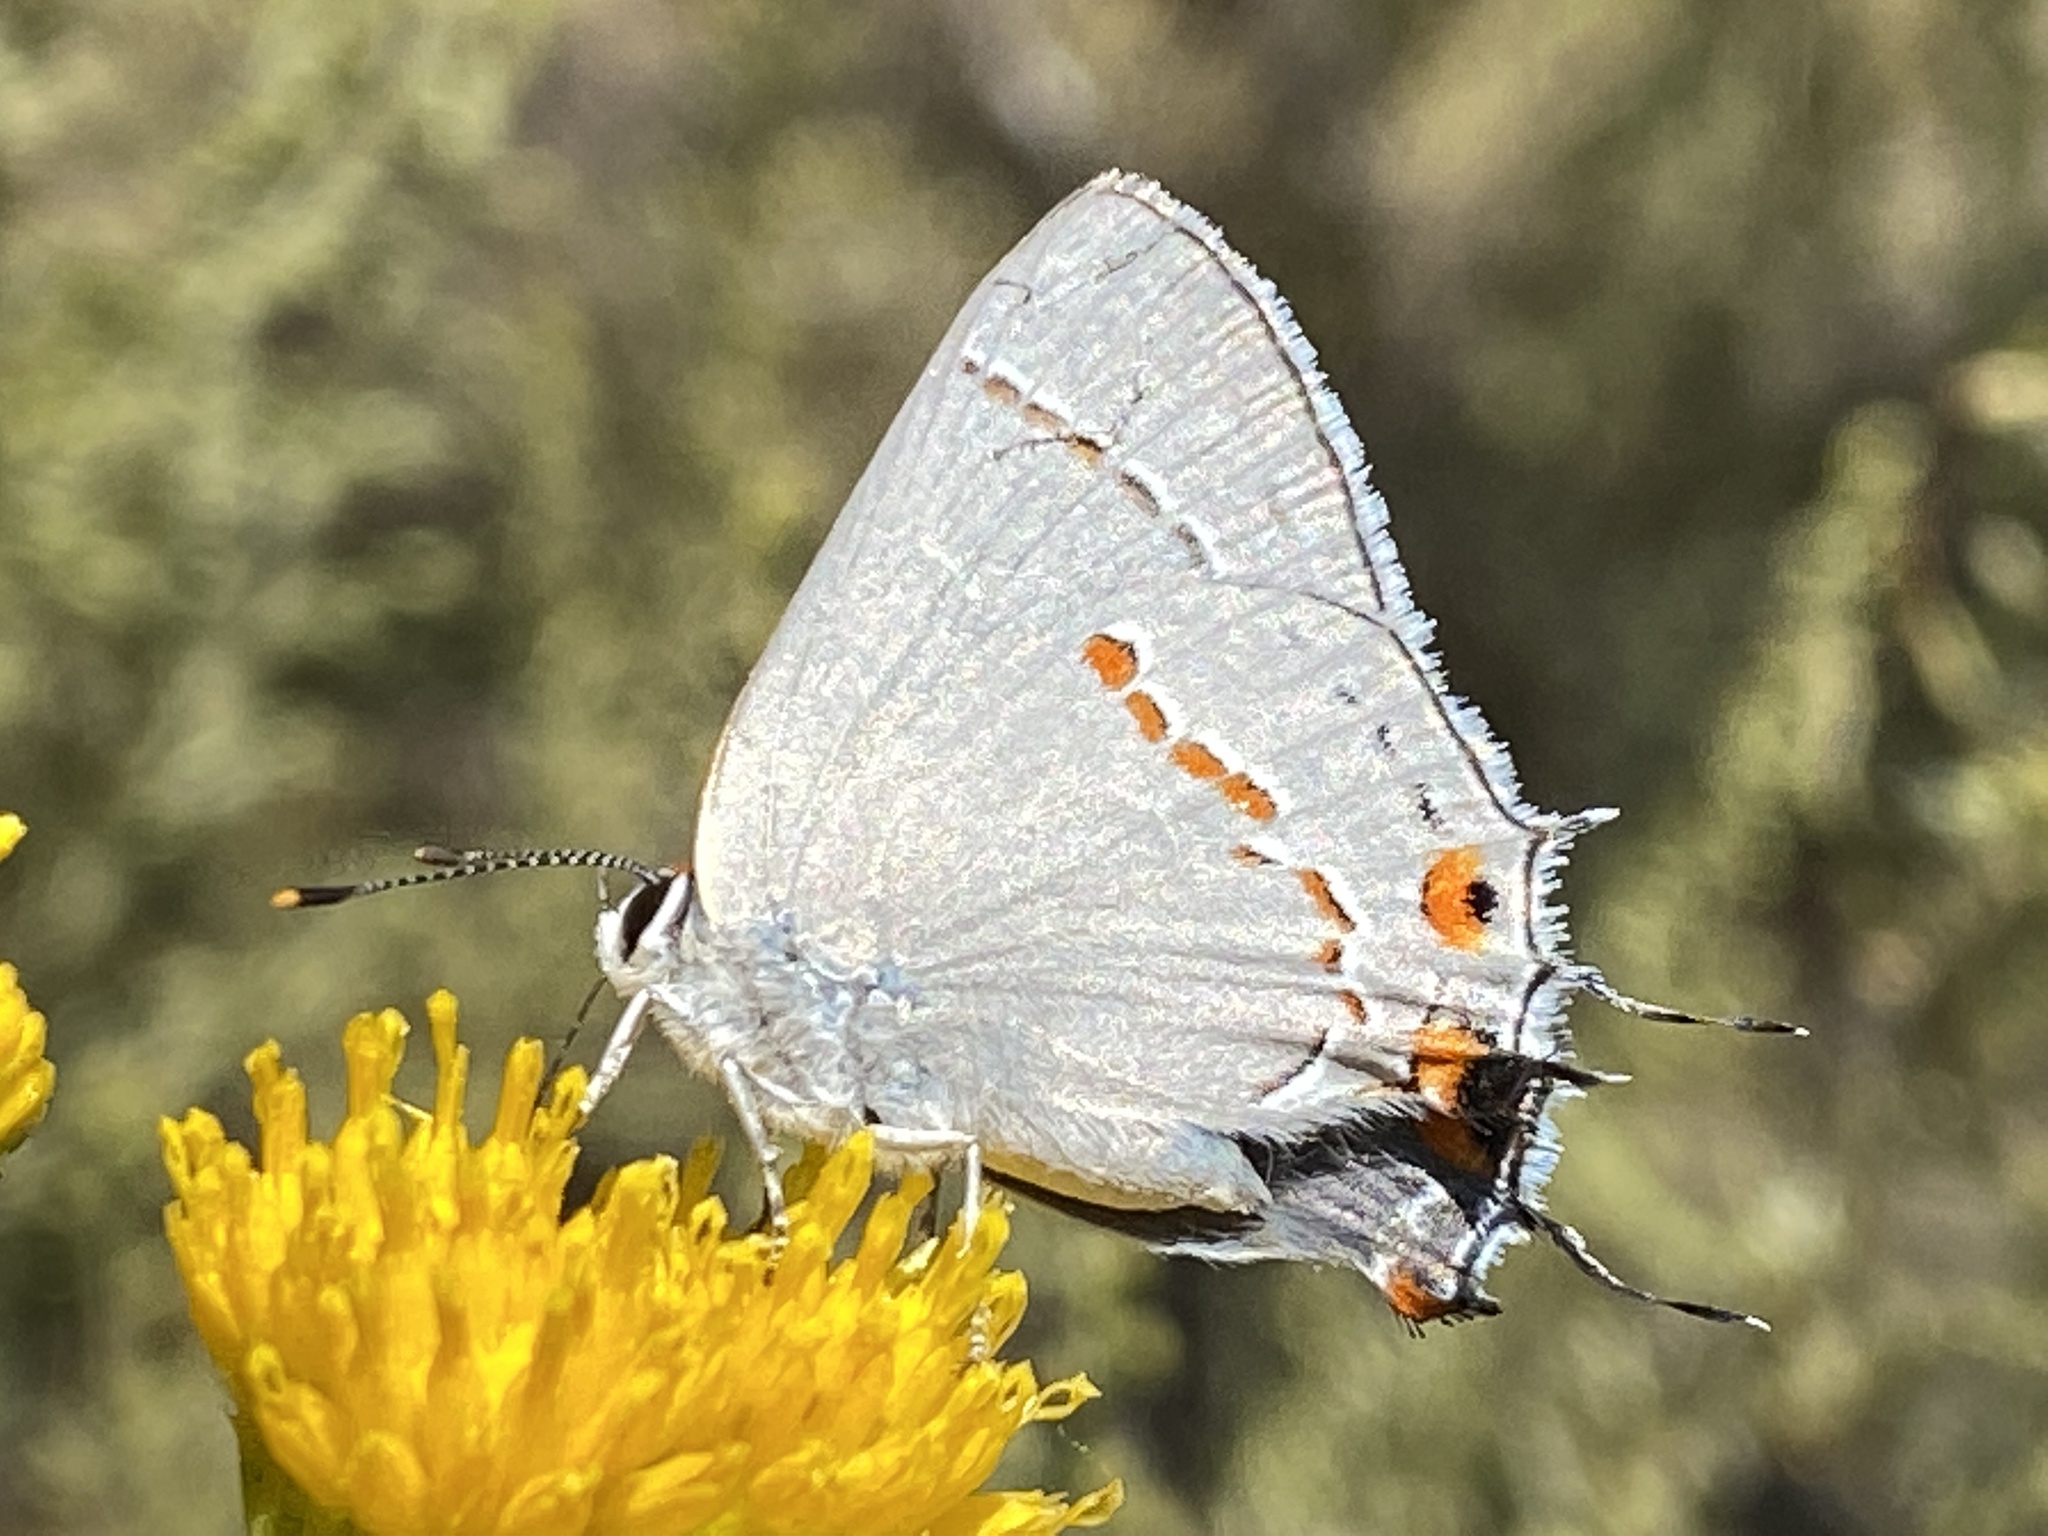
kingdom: Animalia
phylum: Arthropoda
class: Insecta
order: Lepidoptera
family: Lycaenidae
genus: Strymon
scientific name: Strymon melinus
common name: Gray hairstreak
